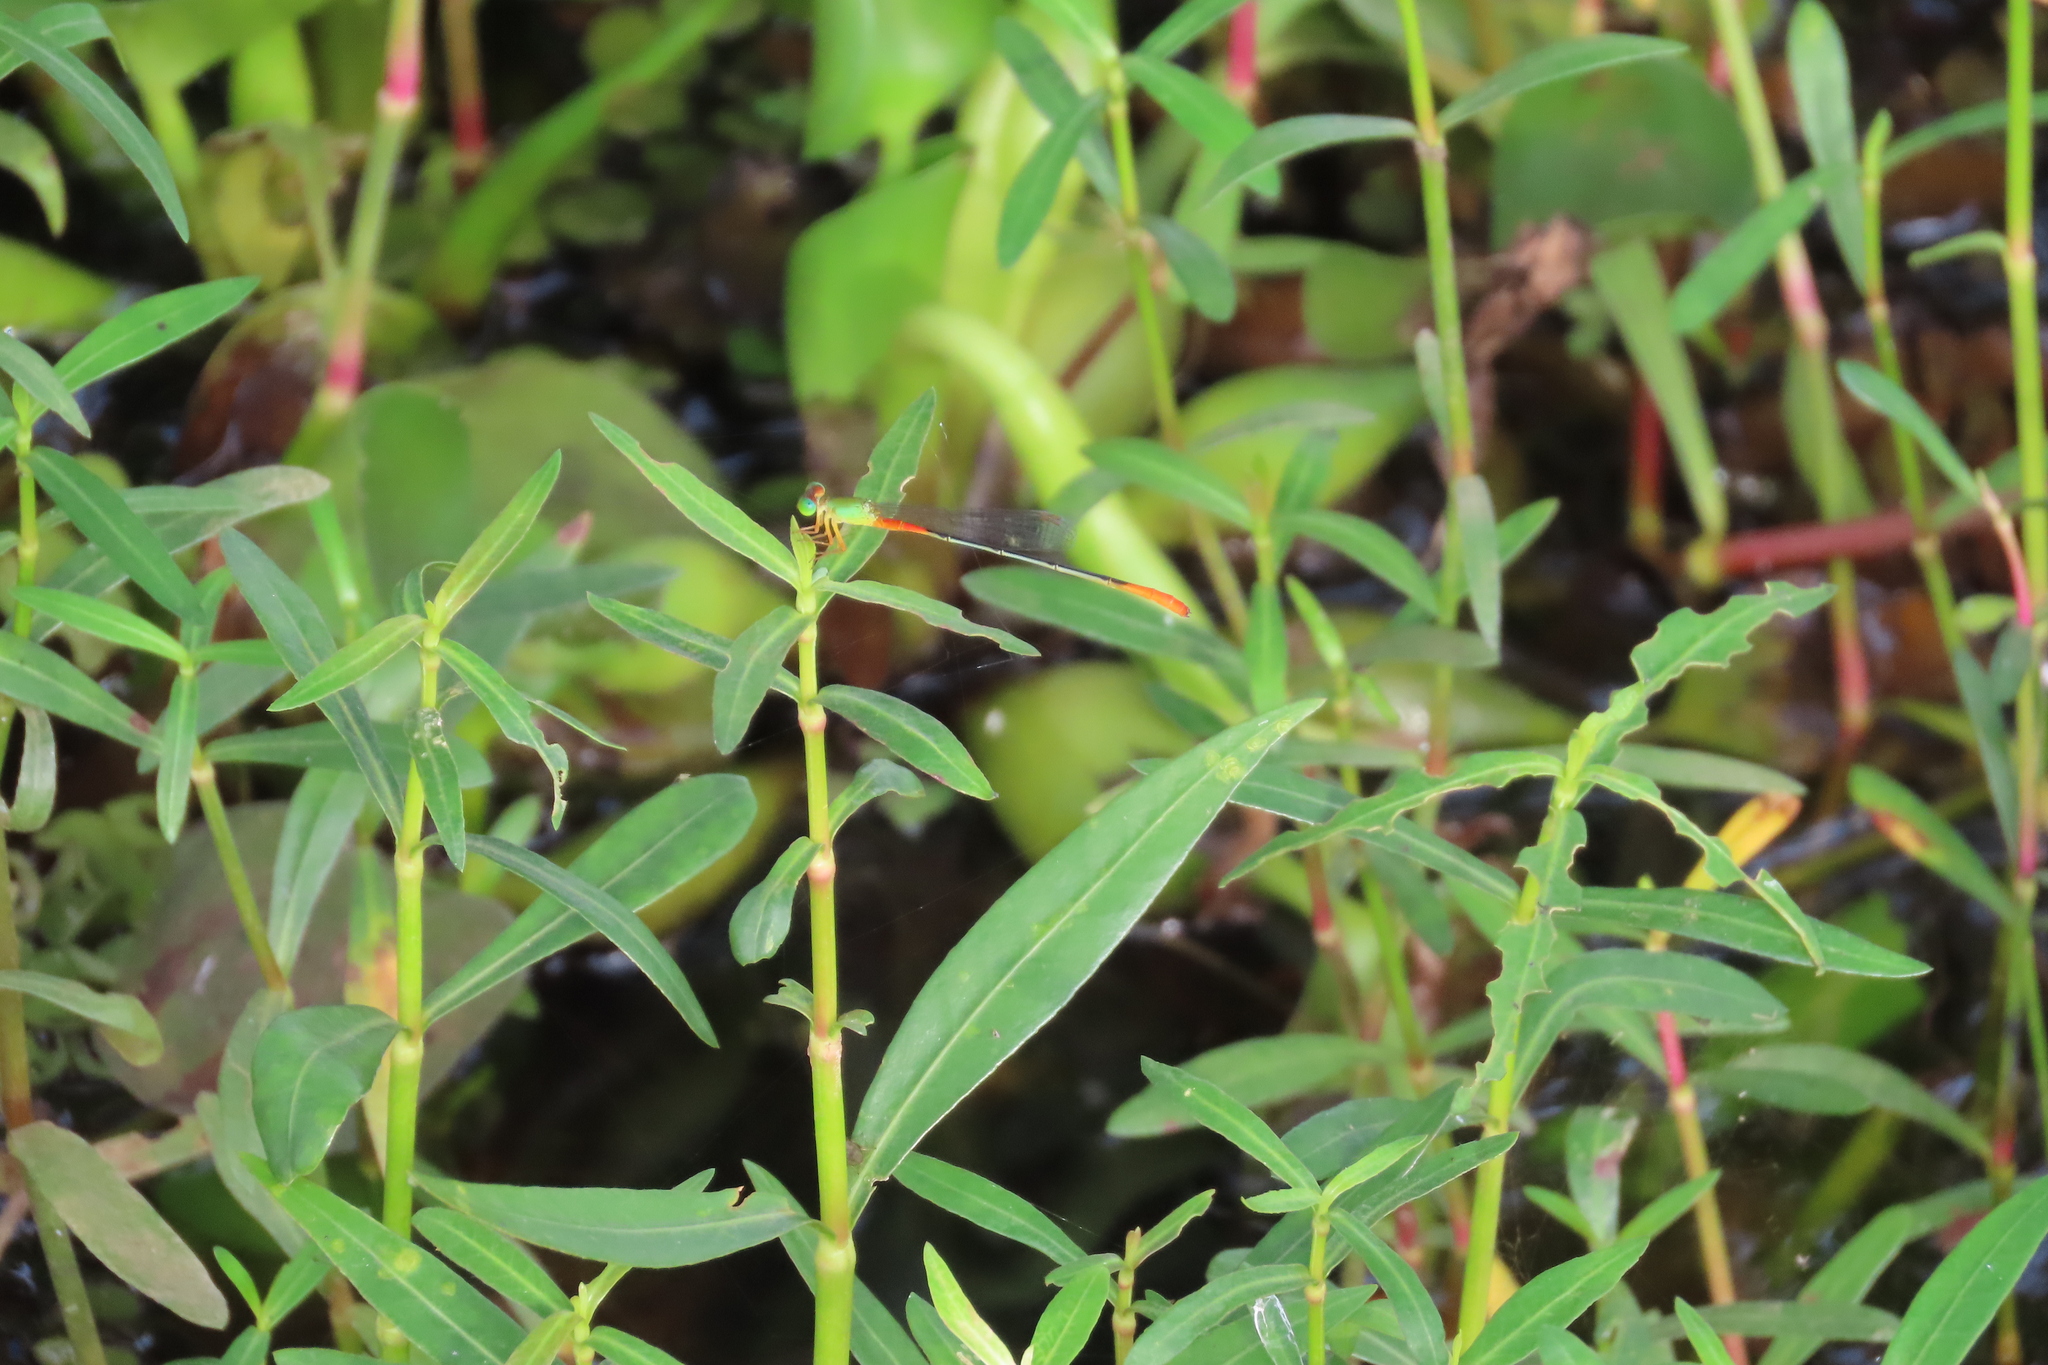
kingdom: Animalia
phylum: Arthropoda
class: Insecta
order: Odonata
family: Coenagrionidae
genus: Ceriagrion
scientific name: Ceriagrion cerinorubellum
